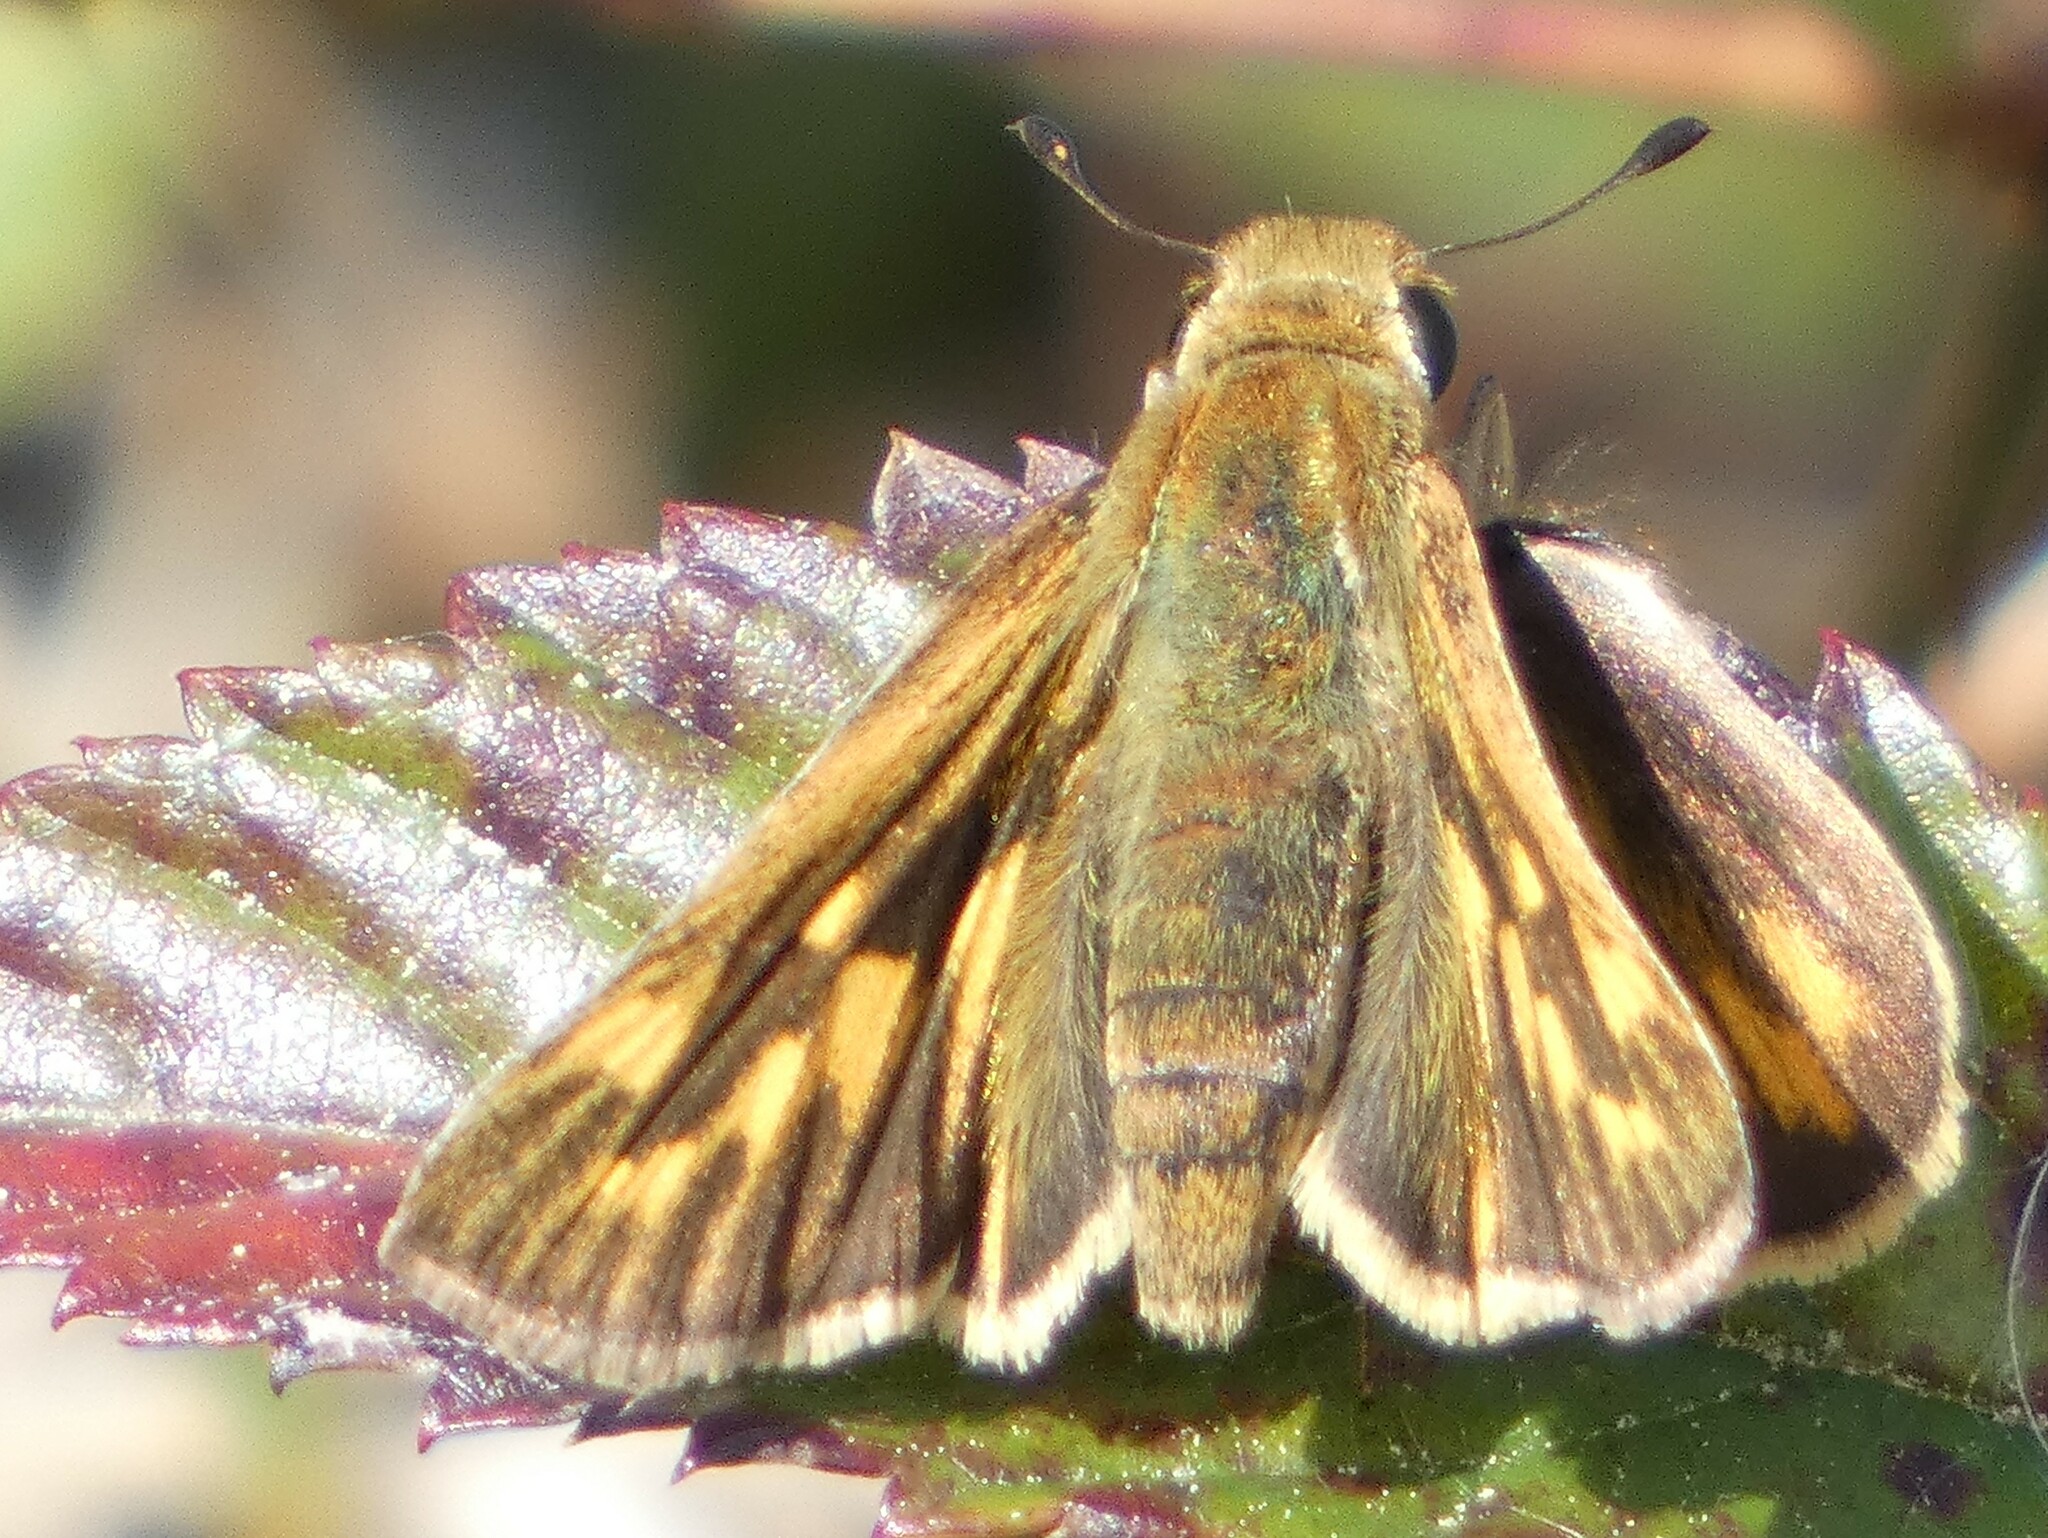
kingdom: Animalia
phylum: Arthropoda
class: Insecta
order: Lepidoptera
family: Hesperiidae
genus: Hylephila
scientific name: Hylephila phyleus
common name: Fiery skipper
